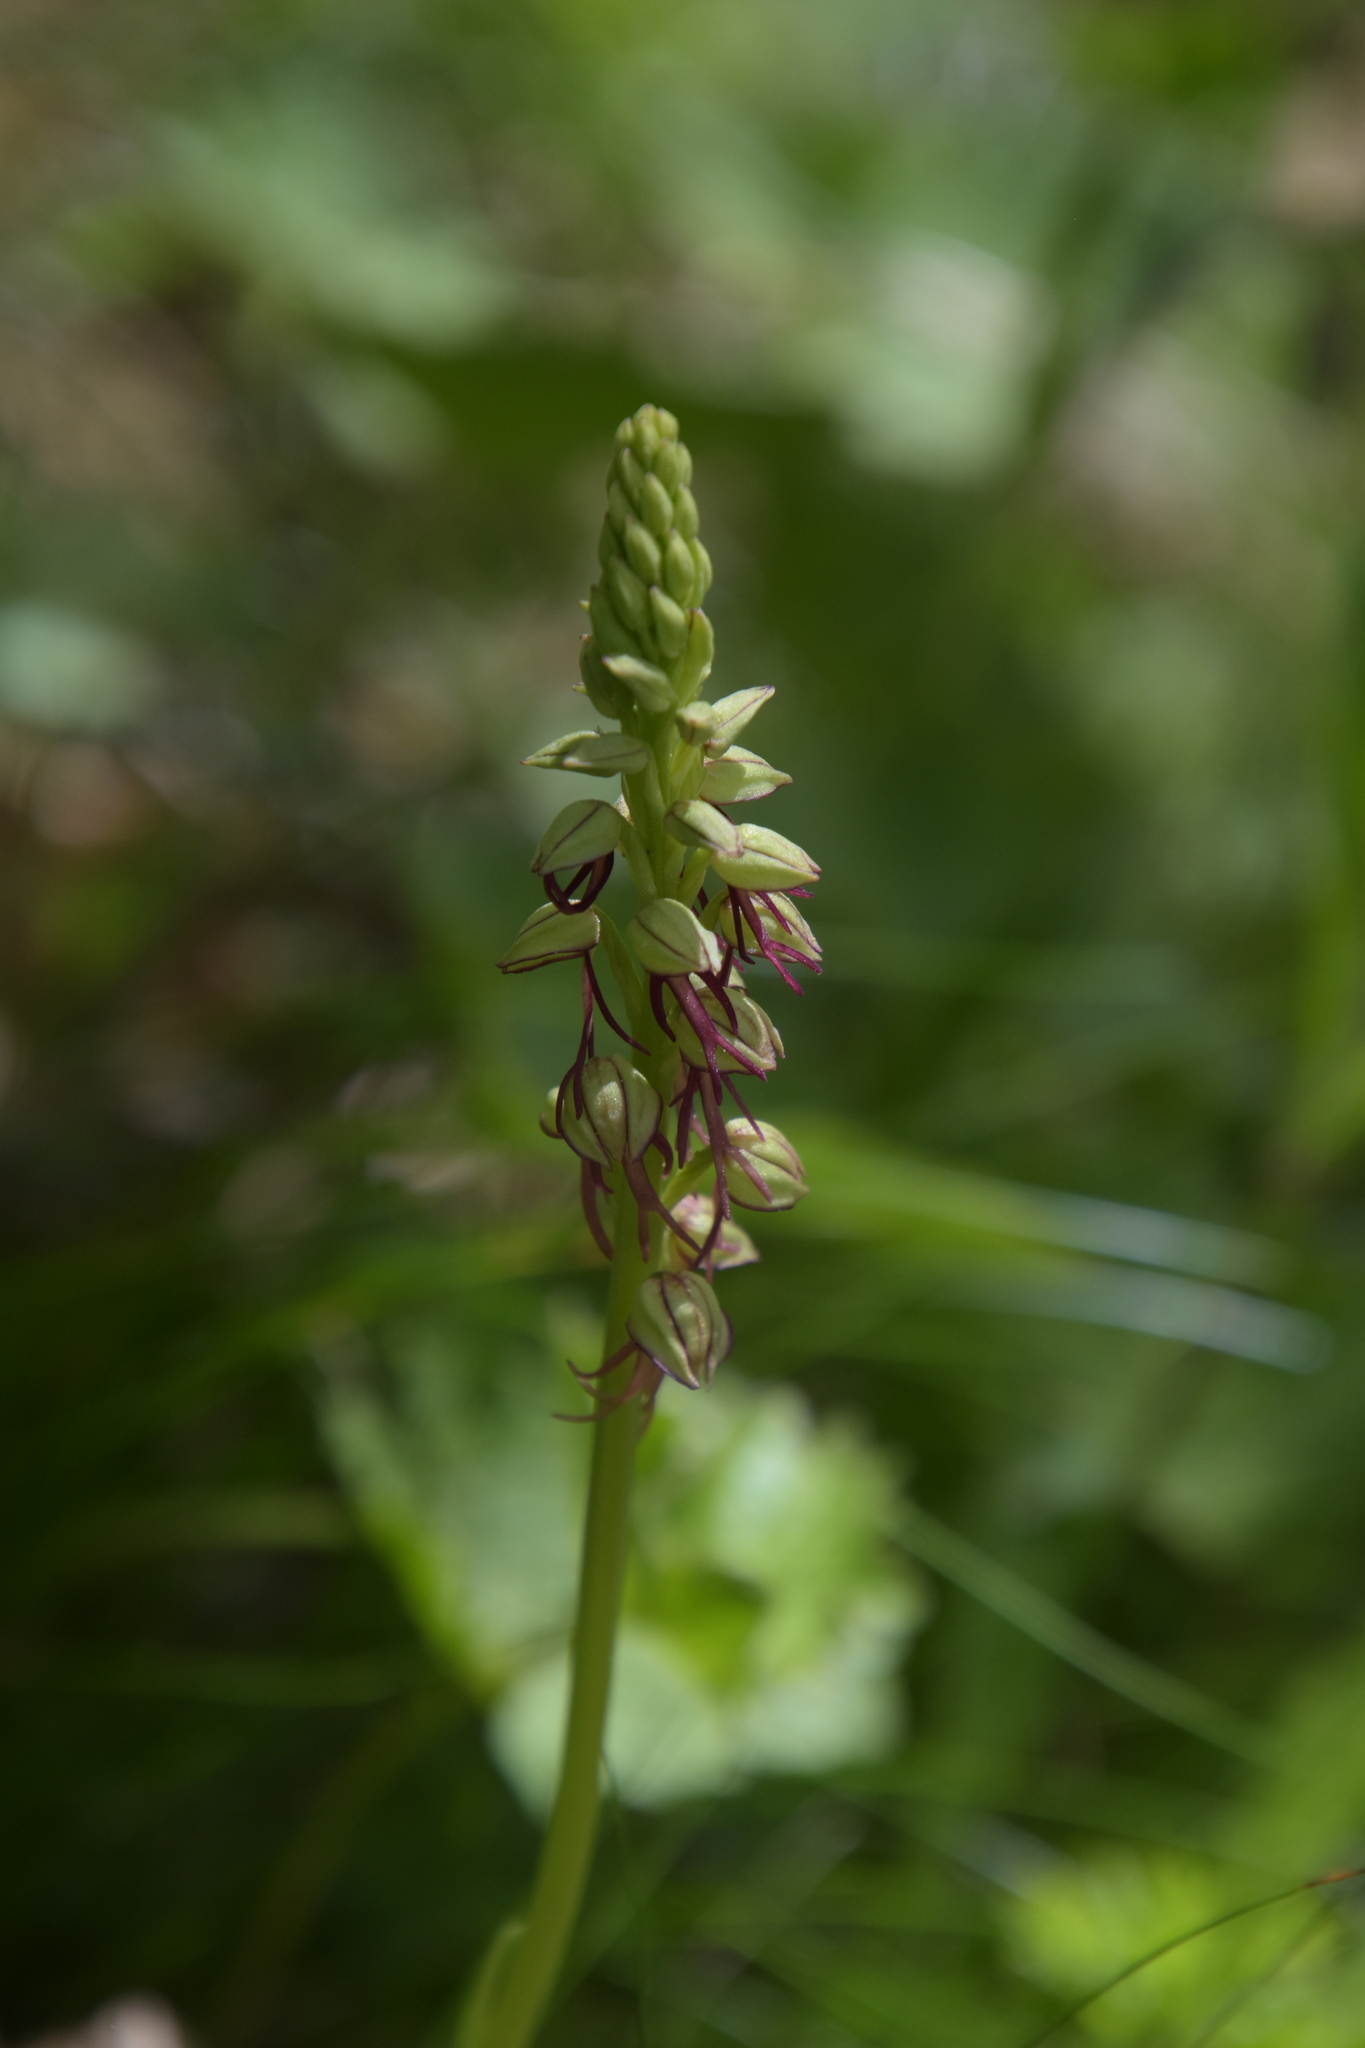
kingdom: Plantae
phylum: Tracheophyta
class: Liliopsida
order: Asparagales
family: Orchidaceae
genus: Orchis
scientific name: Orchis anthropophora
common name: Man orchid
